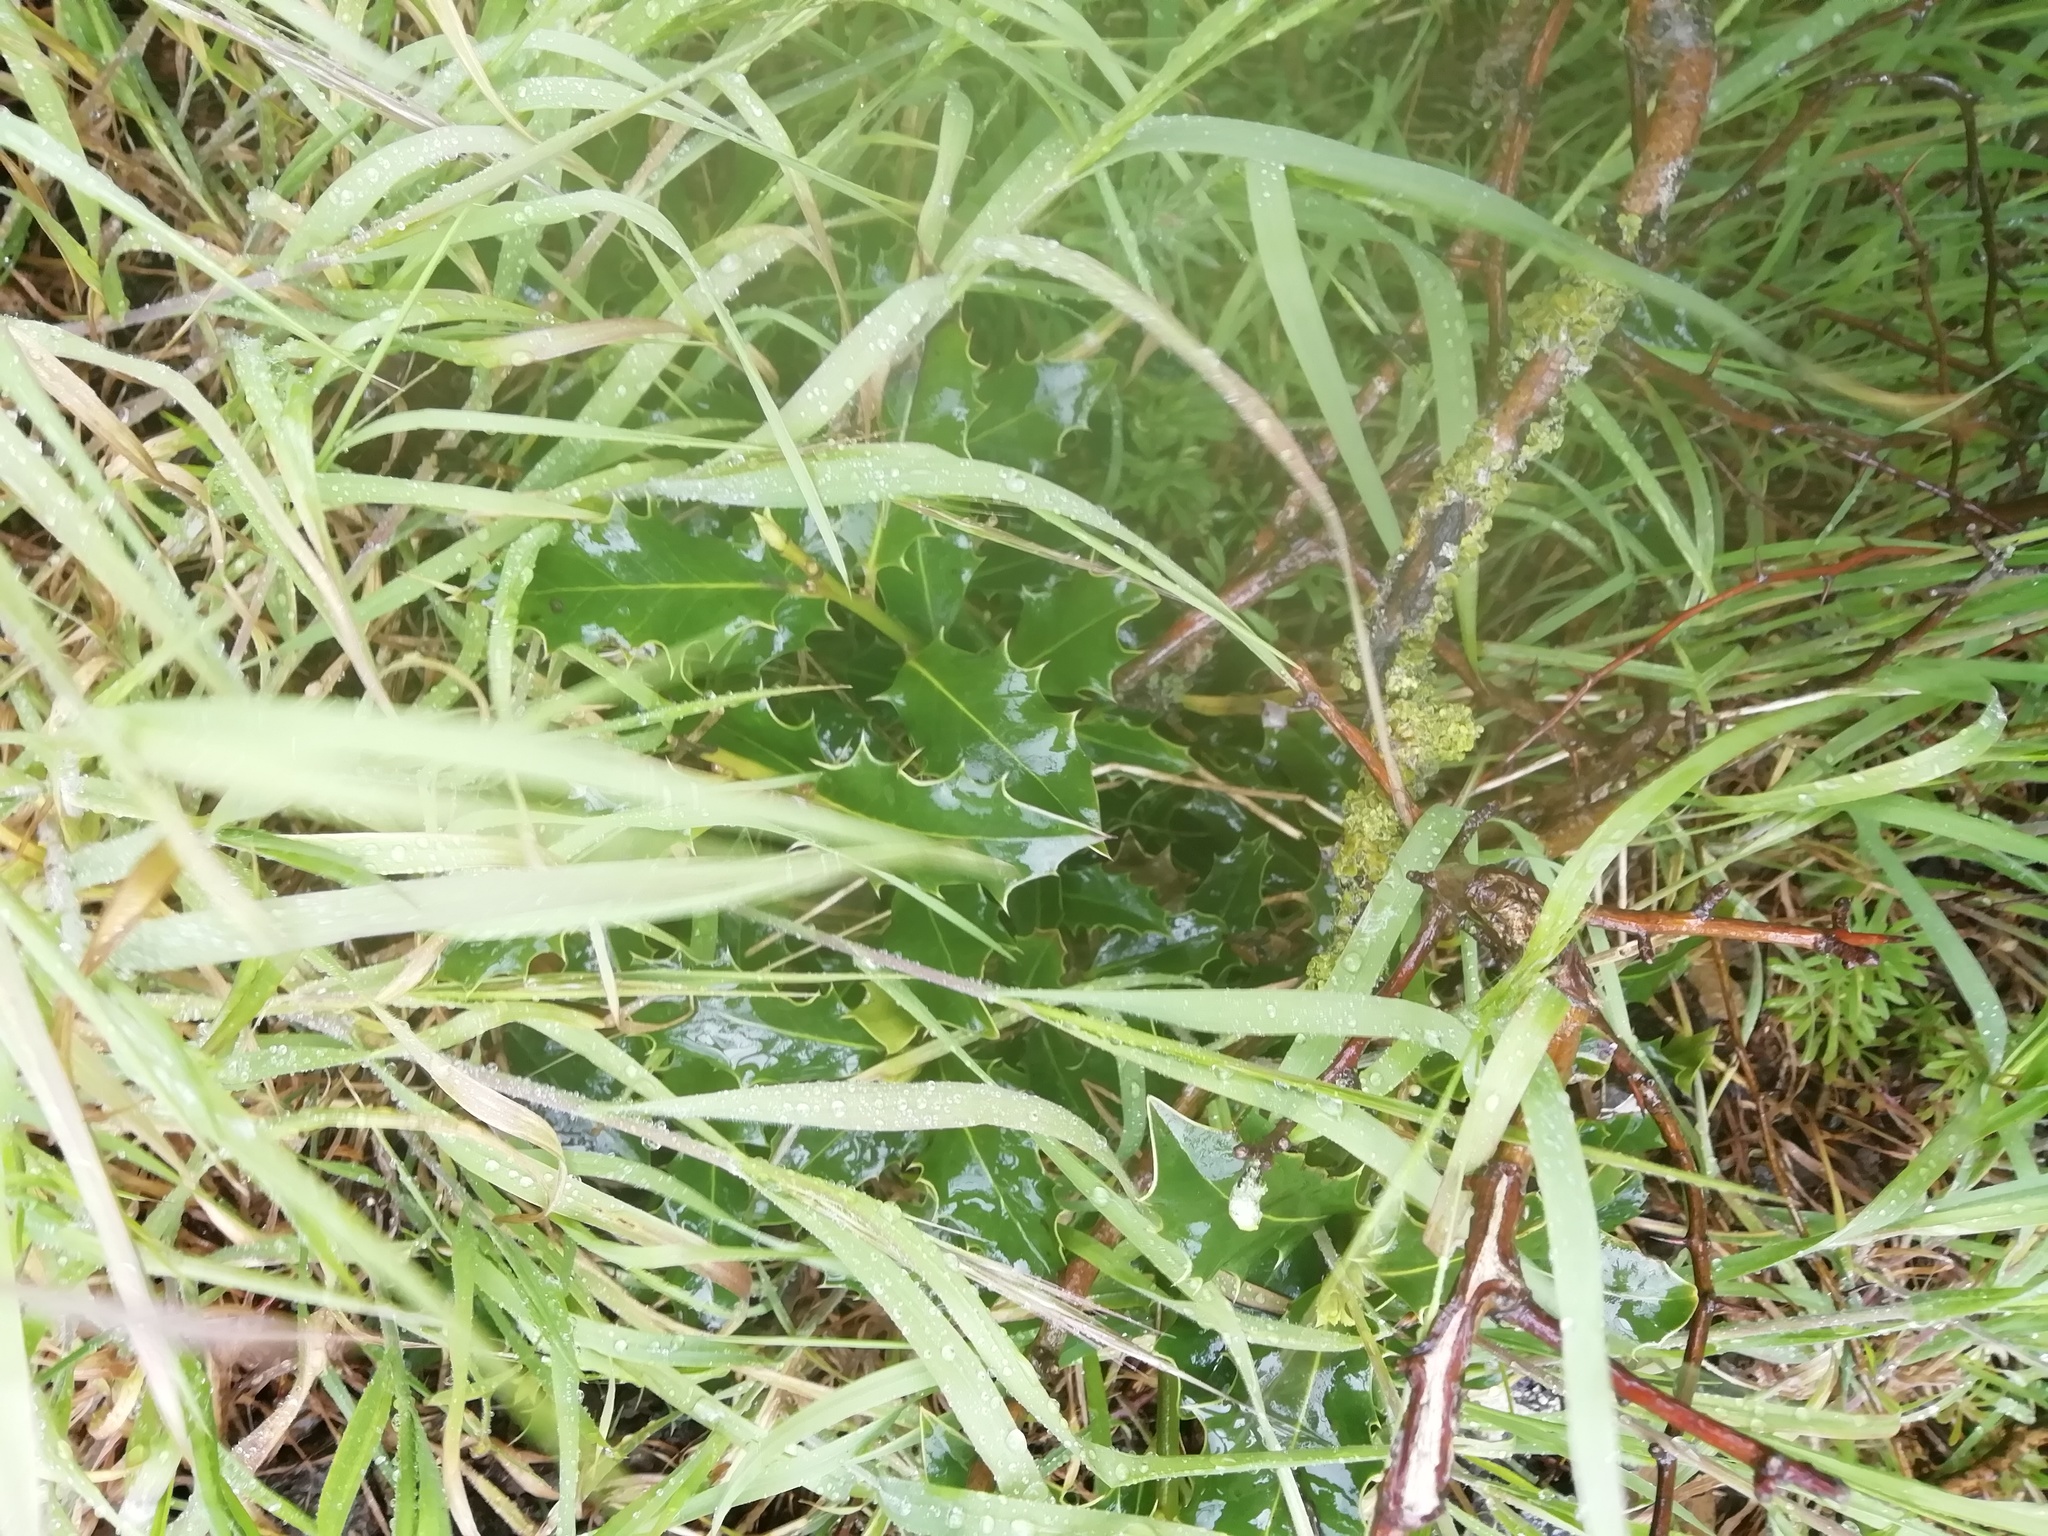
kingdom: Plantae
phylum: Tracheophyta
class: Magnoliopsida
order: Aquifoliales
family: Aquifoliaceae
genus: Ilex
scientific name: Ilex aquifolium
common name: English holly
